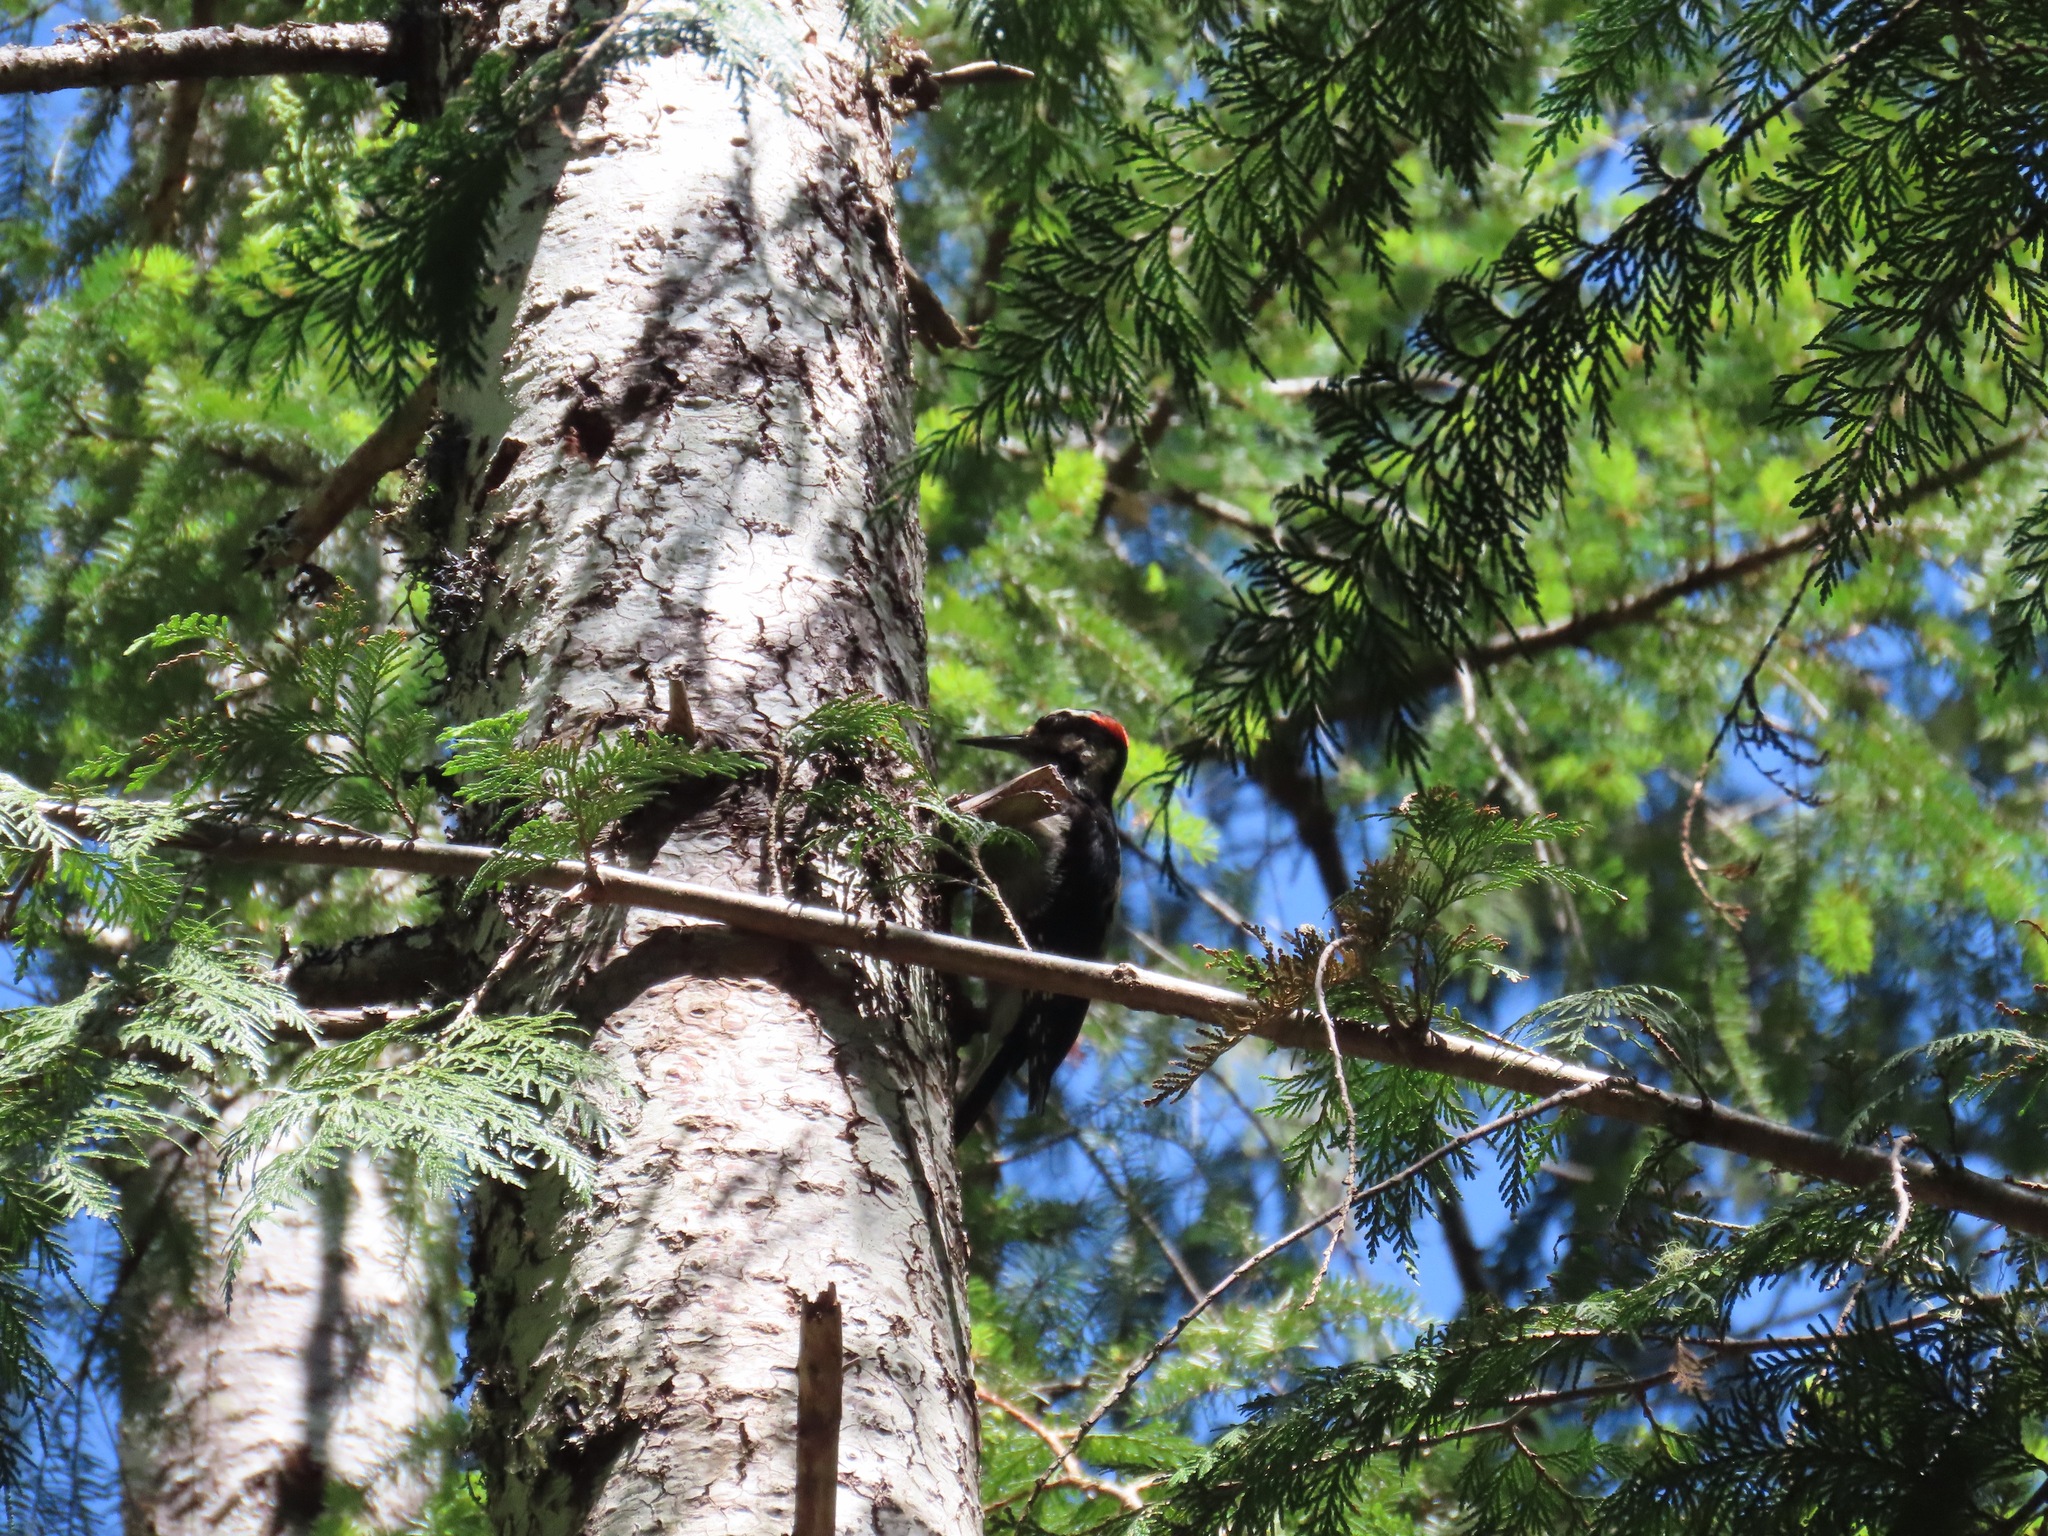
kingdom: Animalia
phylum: Chordata
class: Aves
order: Piciformes
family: Picidae
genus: Leuconotopicus
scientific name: Leuconotopicus villosus
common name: Hairy woodpecker
